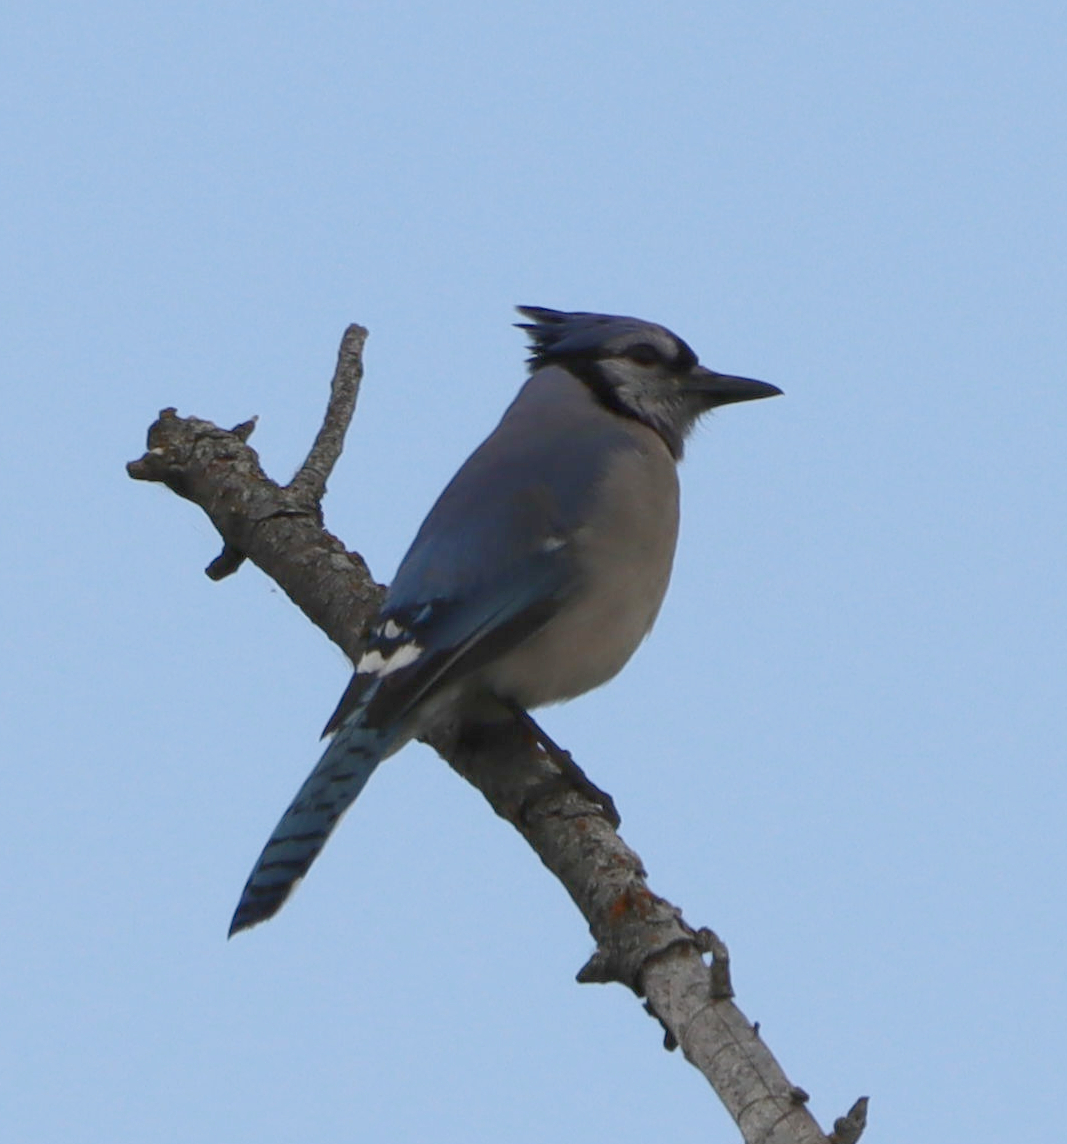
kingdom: Animalia
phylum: Chordata
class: Aves
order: Passeriformes
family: Corvidae
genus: Cyanocitta
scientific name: Cyanocitta cristata
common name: Blue jay
